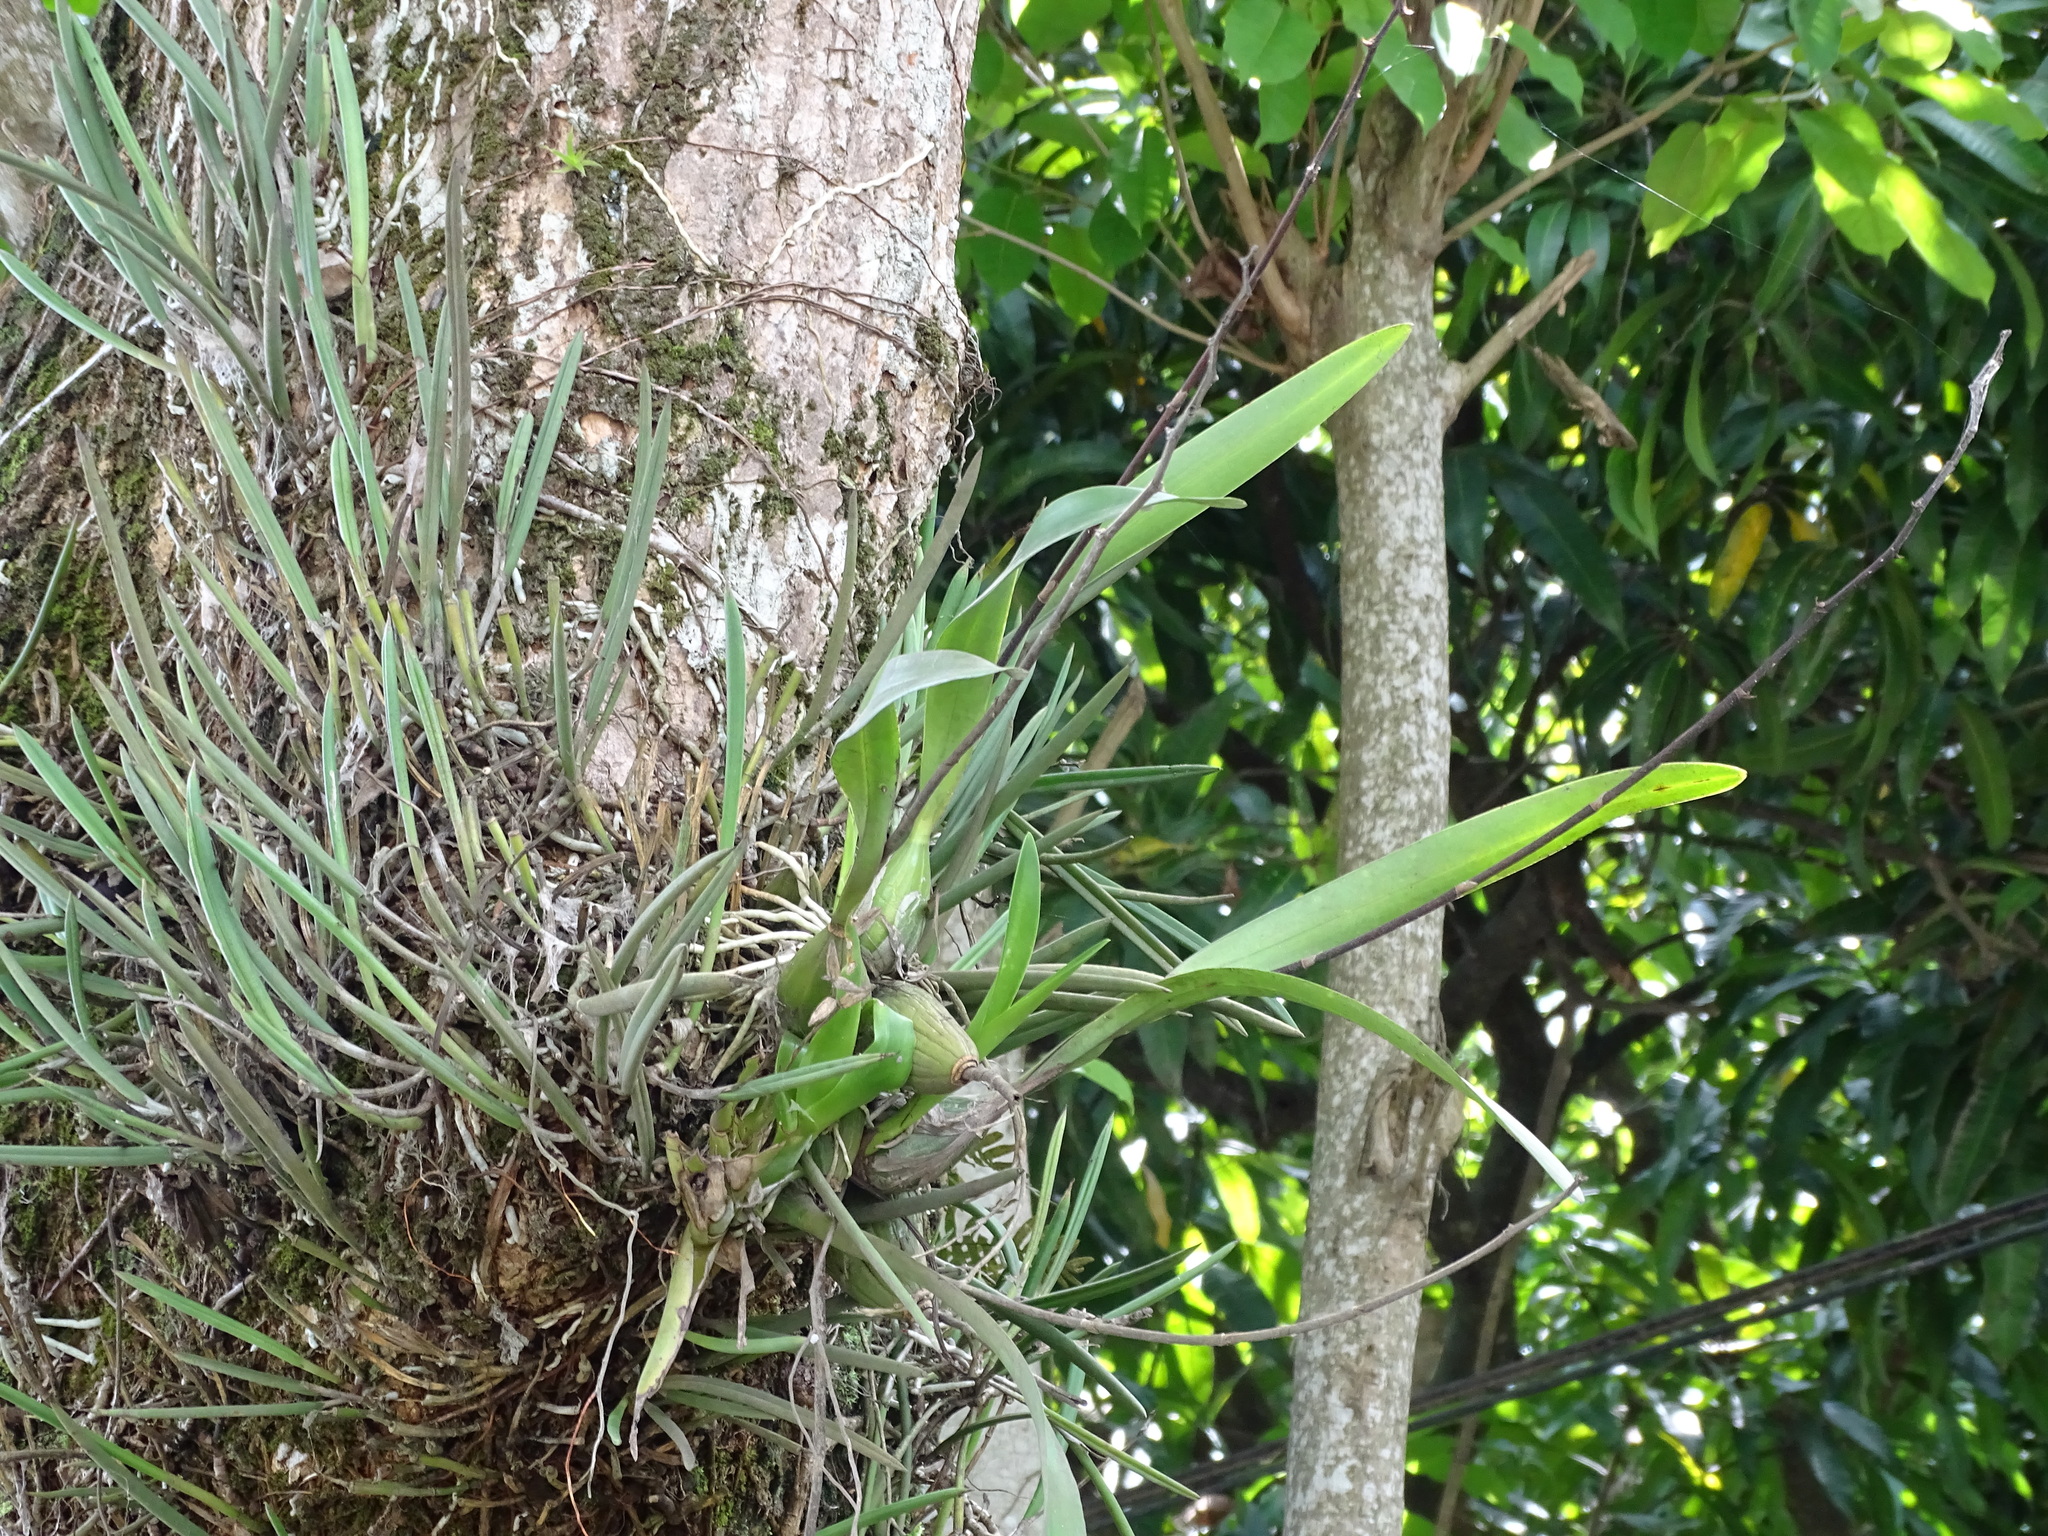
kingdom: Plantae
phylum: Tracheophyta
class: Liliopsida
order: Asparagales
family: Orchidaceae
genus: Encyclia
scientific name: Encyclia cordigera
